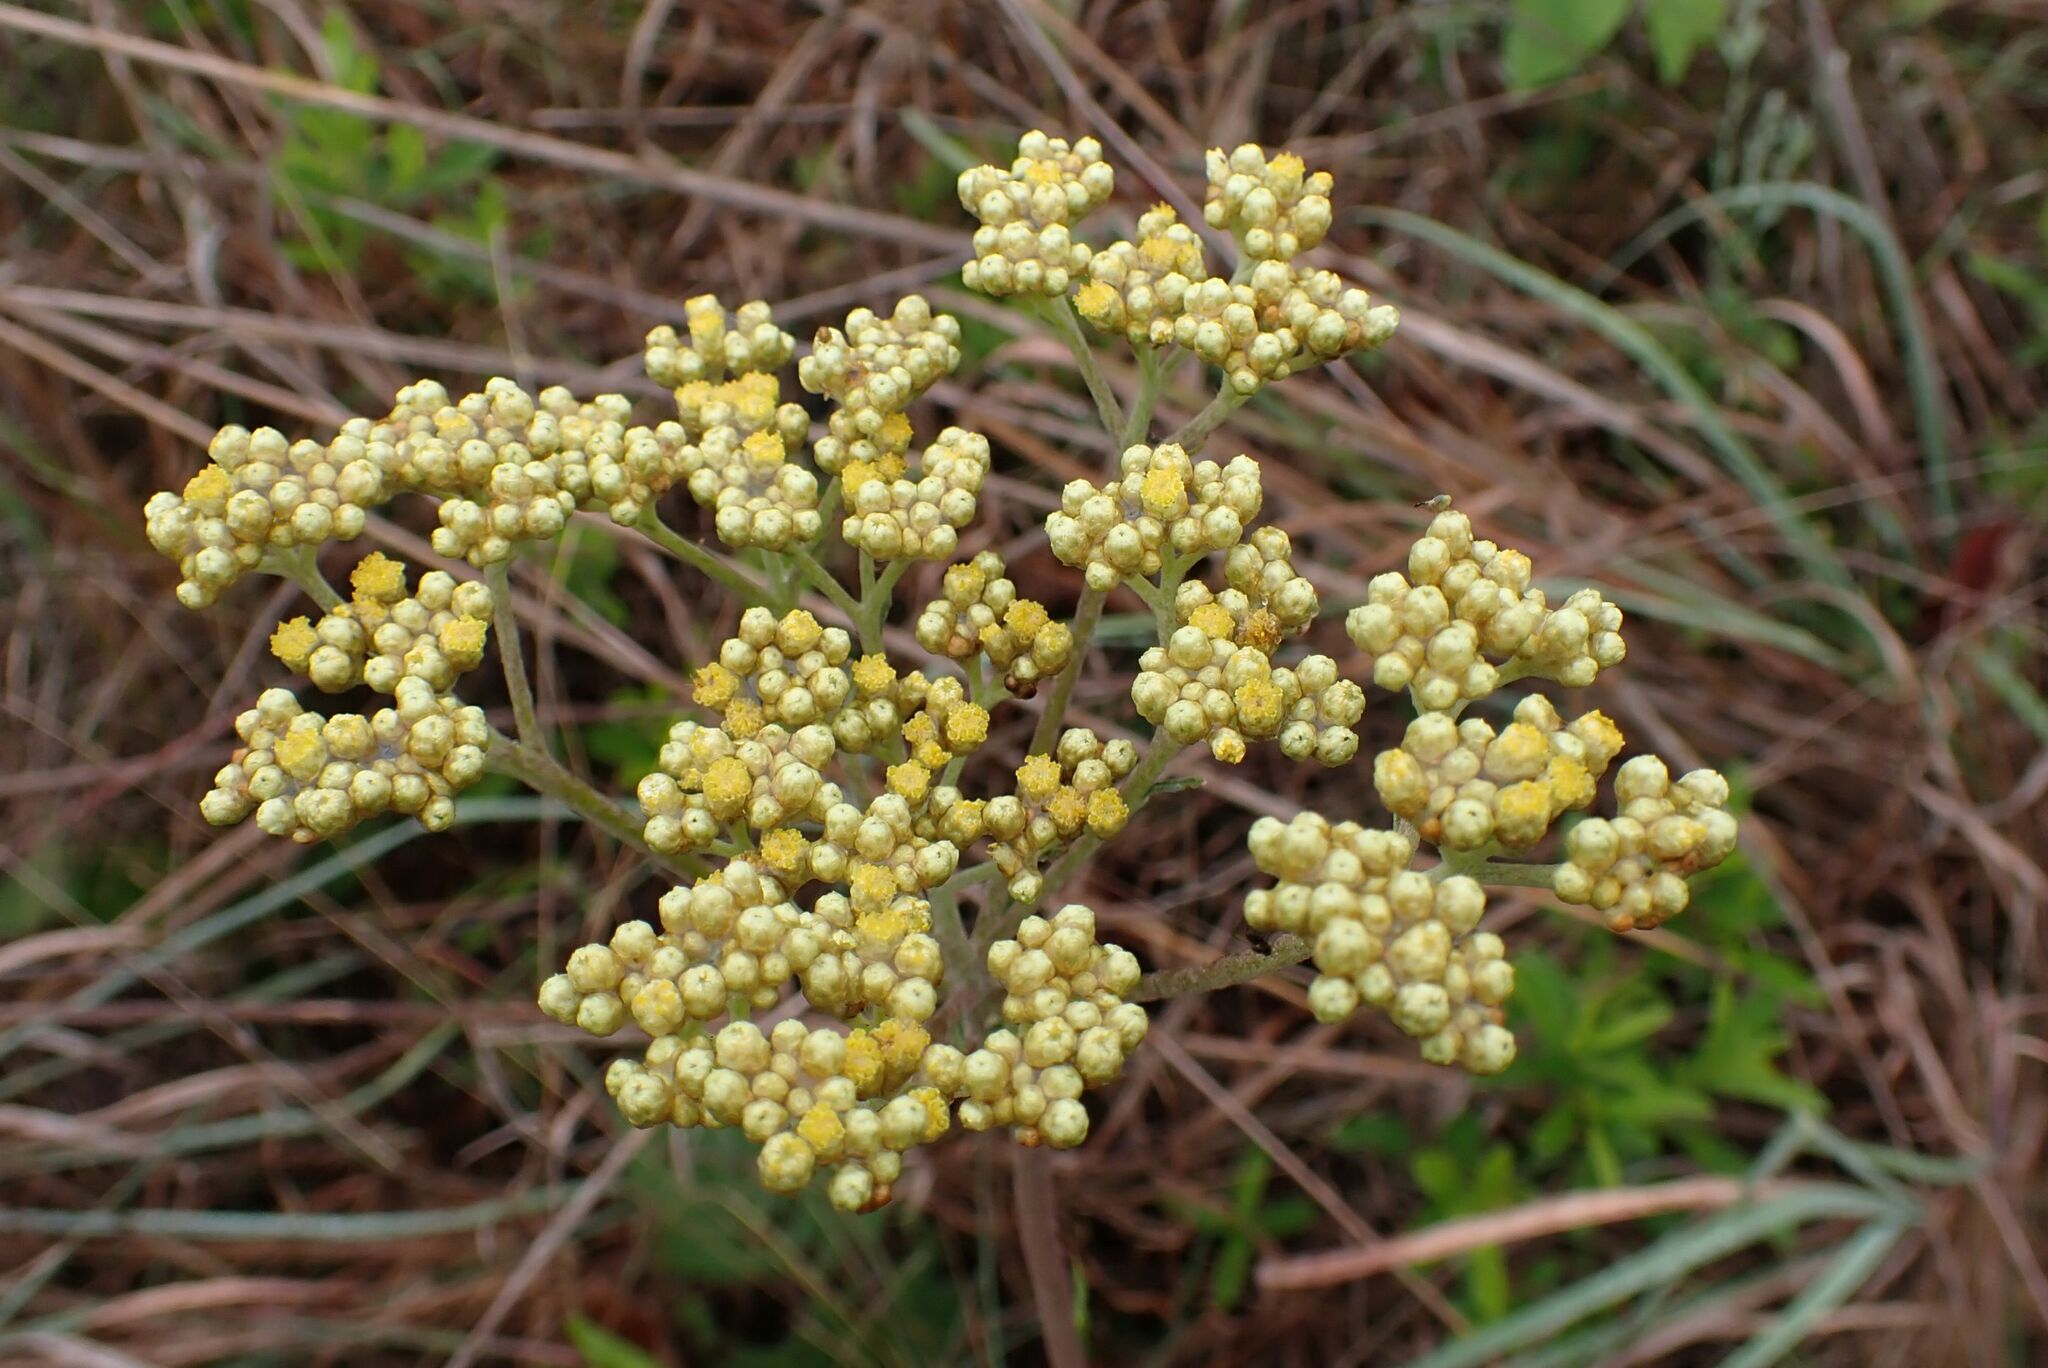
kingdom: Plantae
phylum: Tracheophyta
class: Magnoliopsida
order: Asterales
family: Asteraceae
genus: Helichrysum
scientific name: Helichrysum nudifolium
